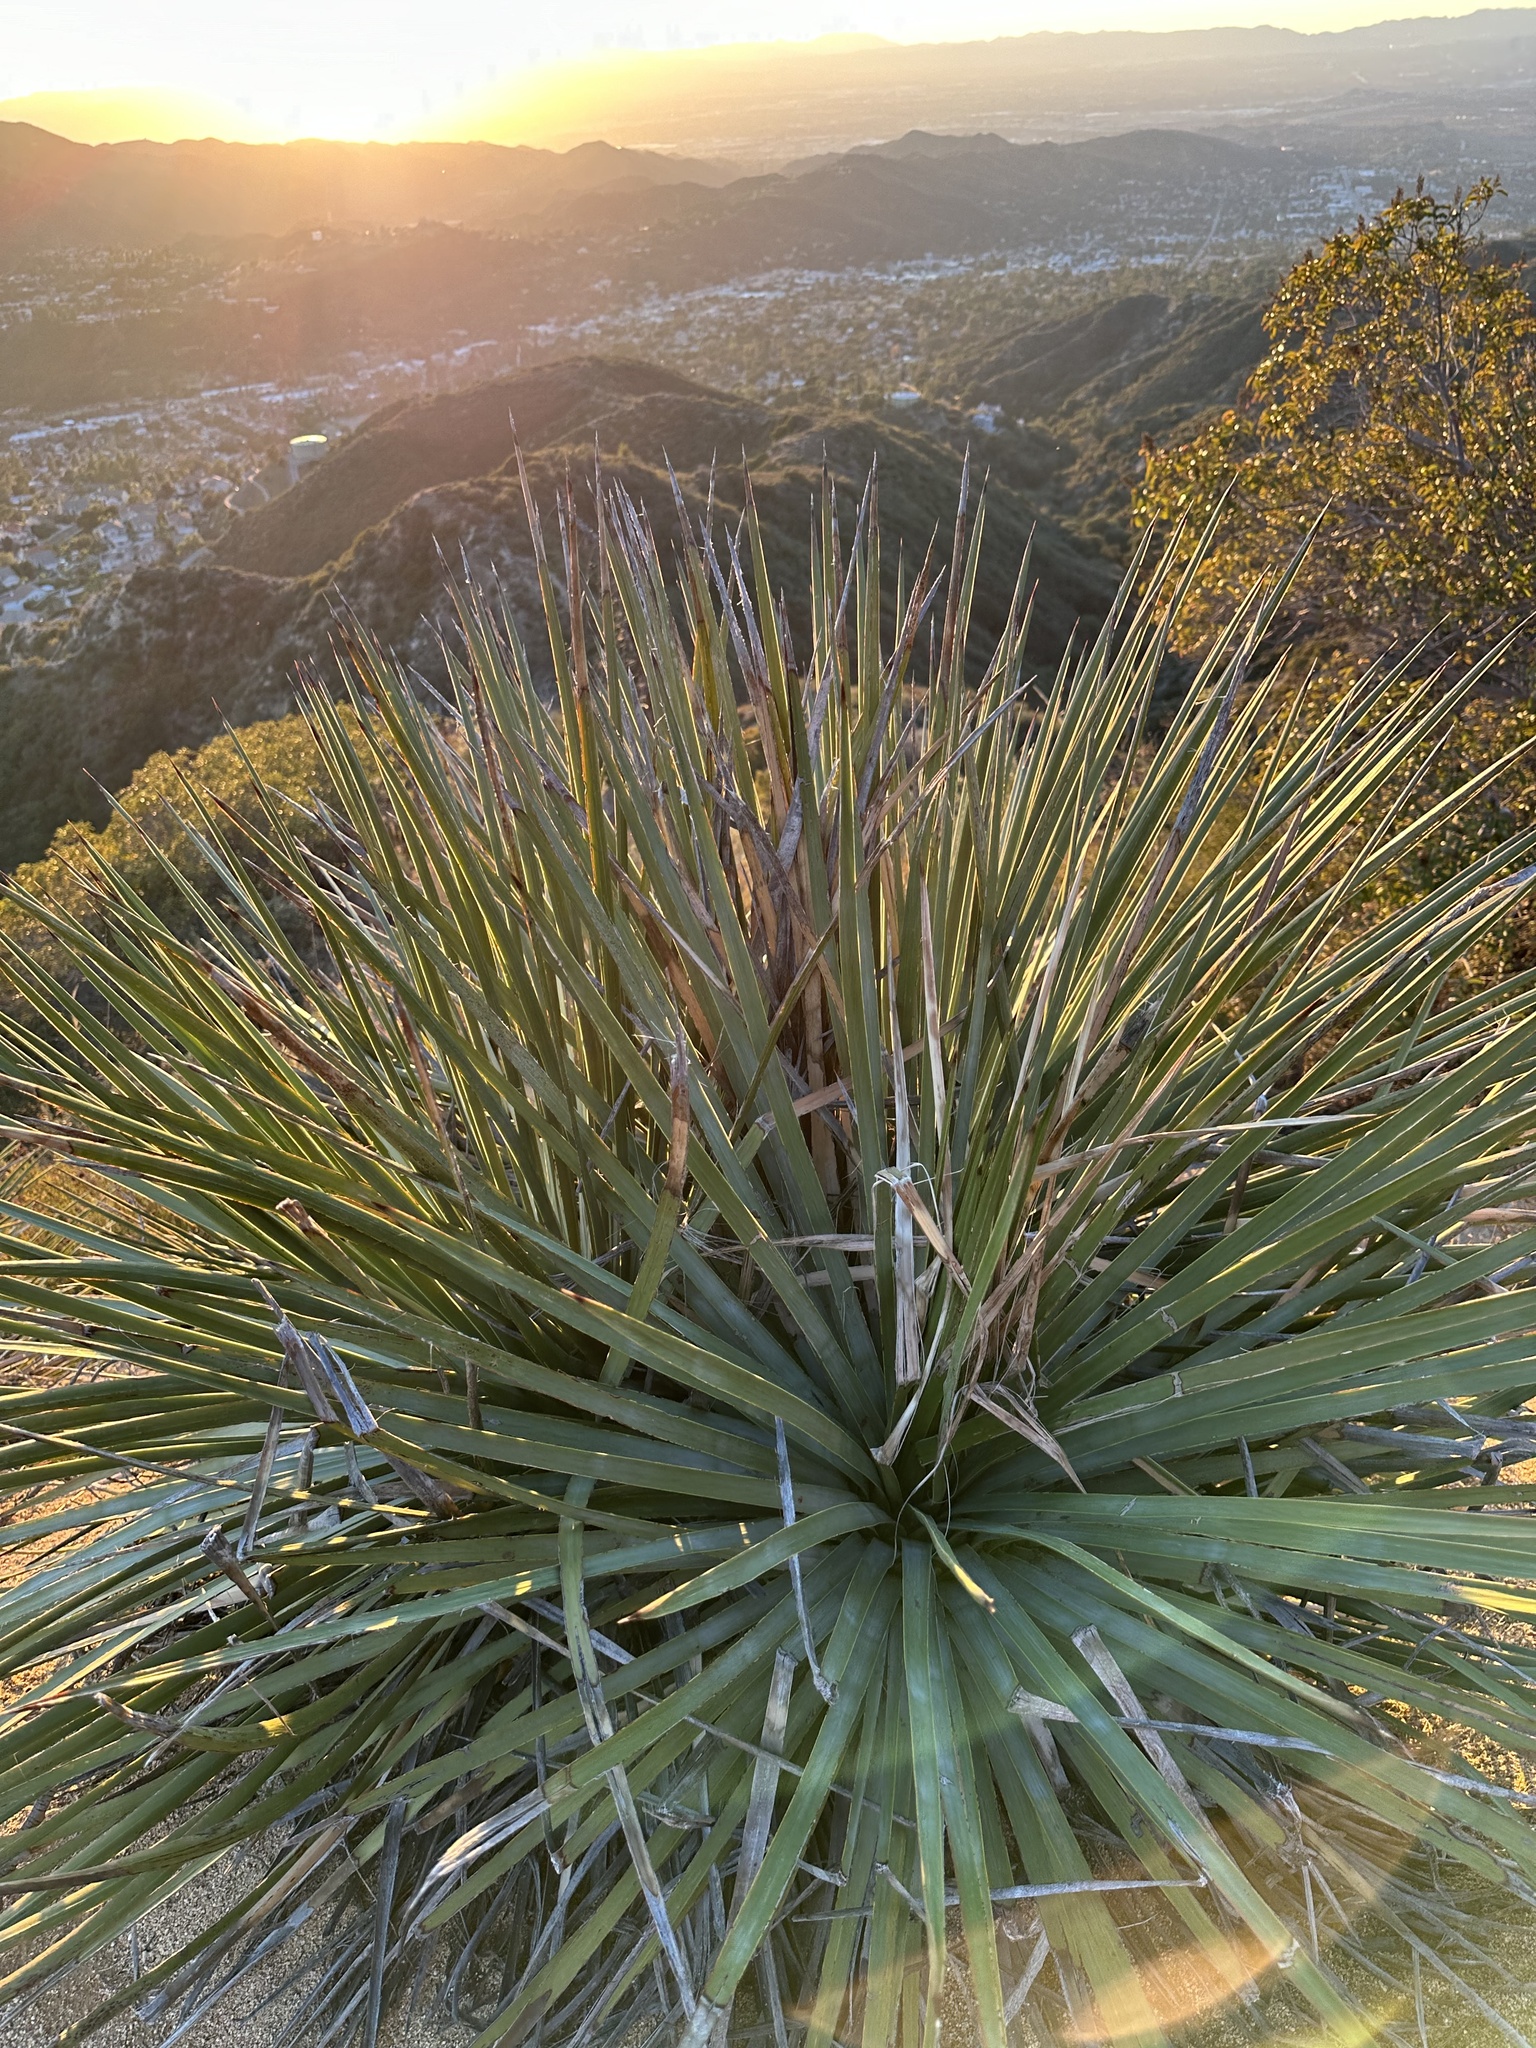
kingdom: Plantae
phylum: Tracheophyta
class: Liliopsida
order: Asparagales
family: Asparagaceae
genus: Hesperoyucca
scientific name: Hesperoyucca whipplei
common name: Our lord's-candle
